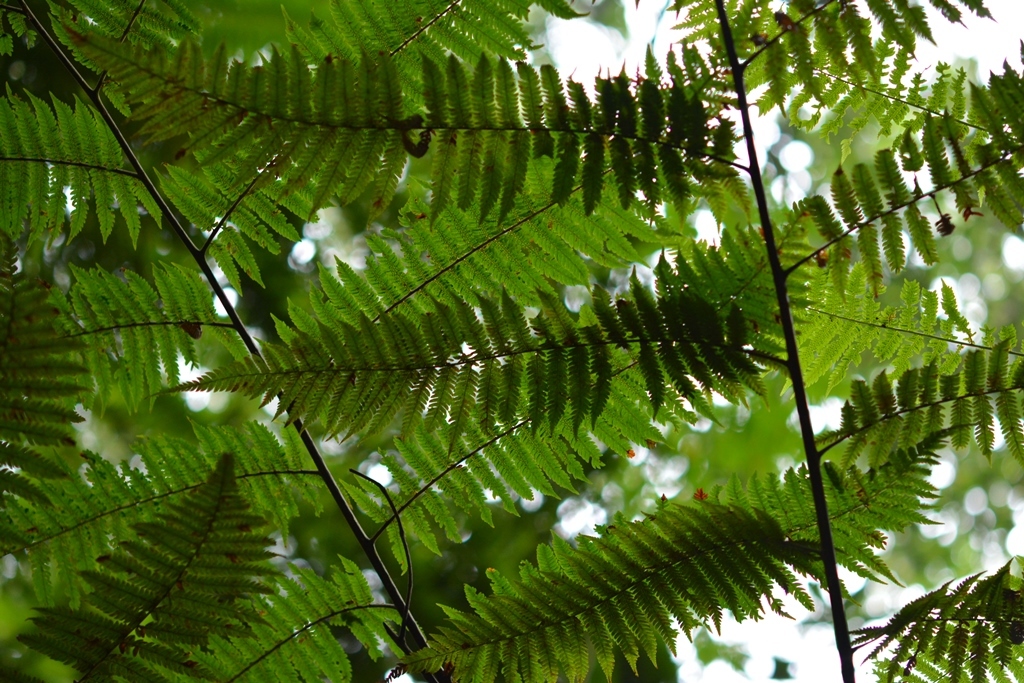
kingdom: Plantae
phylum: Tracheophyta
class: Polypodiopsida
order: Cyatheales
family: Cyatheaceae
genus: Sphaeropteris
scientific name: Sphaeropteris horrida
